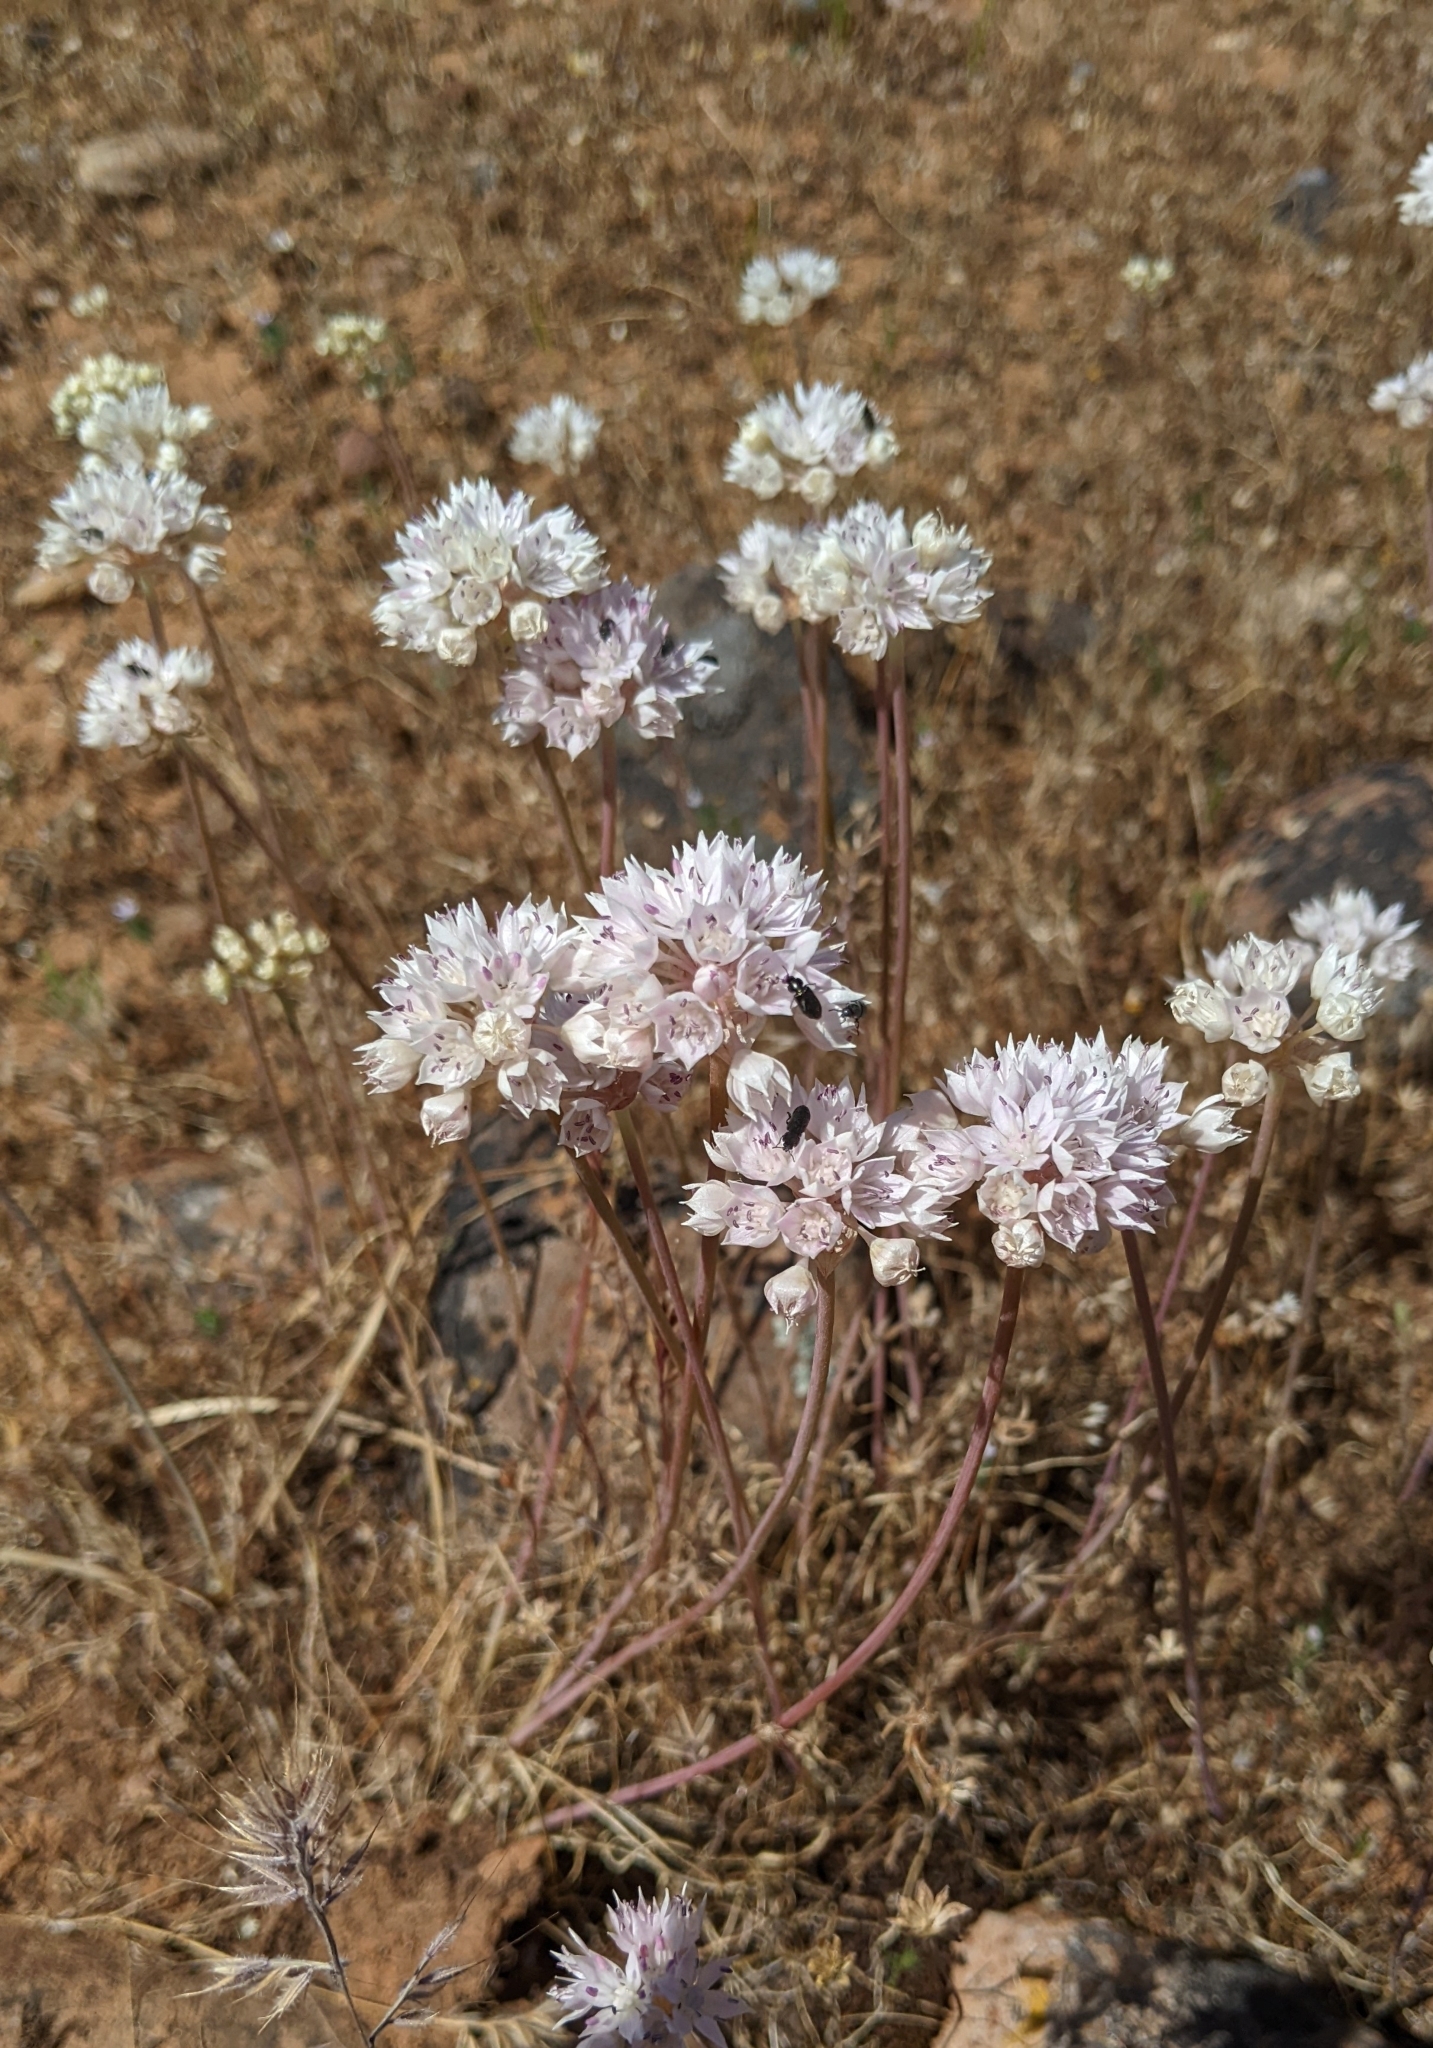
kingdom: Plantae
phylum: Tracheophyta
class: Liliopsida
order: Asparagales
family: Amaryllidaceae
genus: Allium
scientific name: Allium amplectens
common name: Narrow-leaved onion
